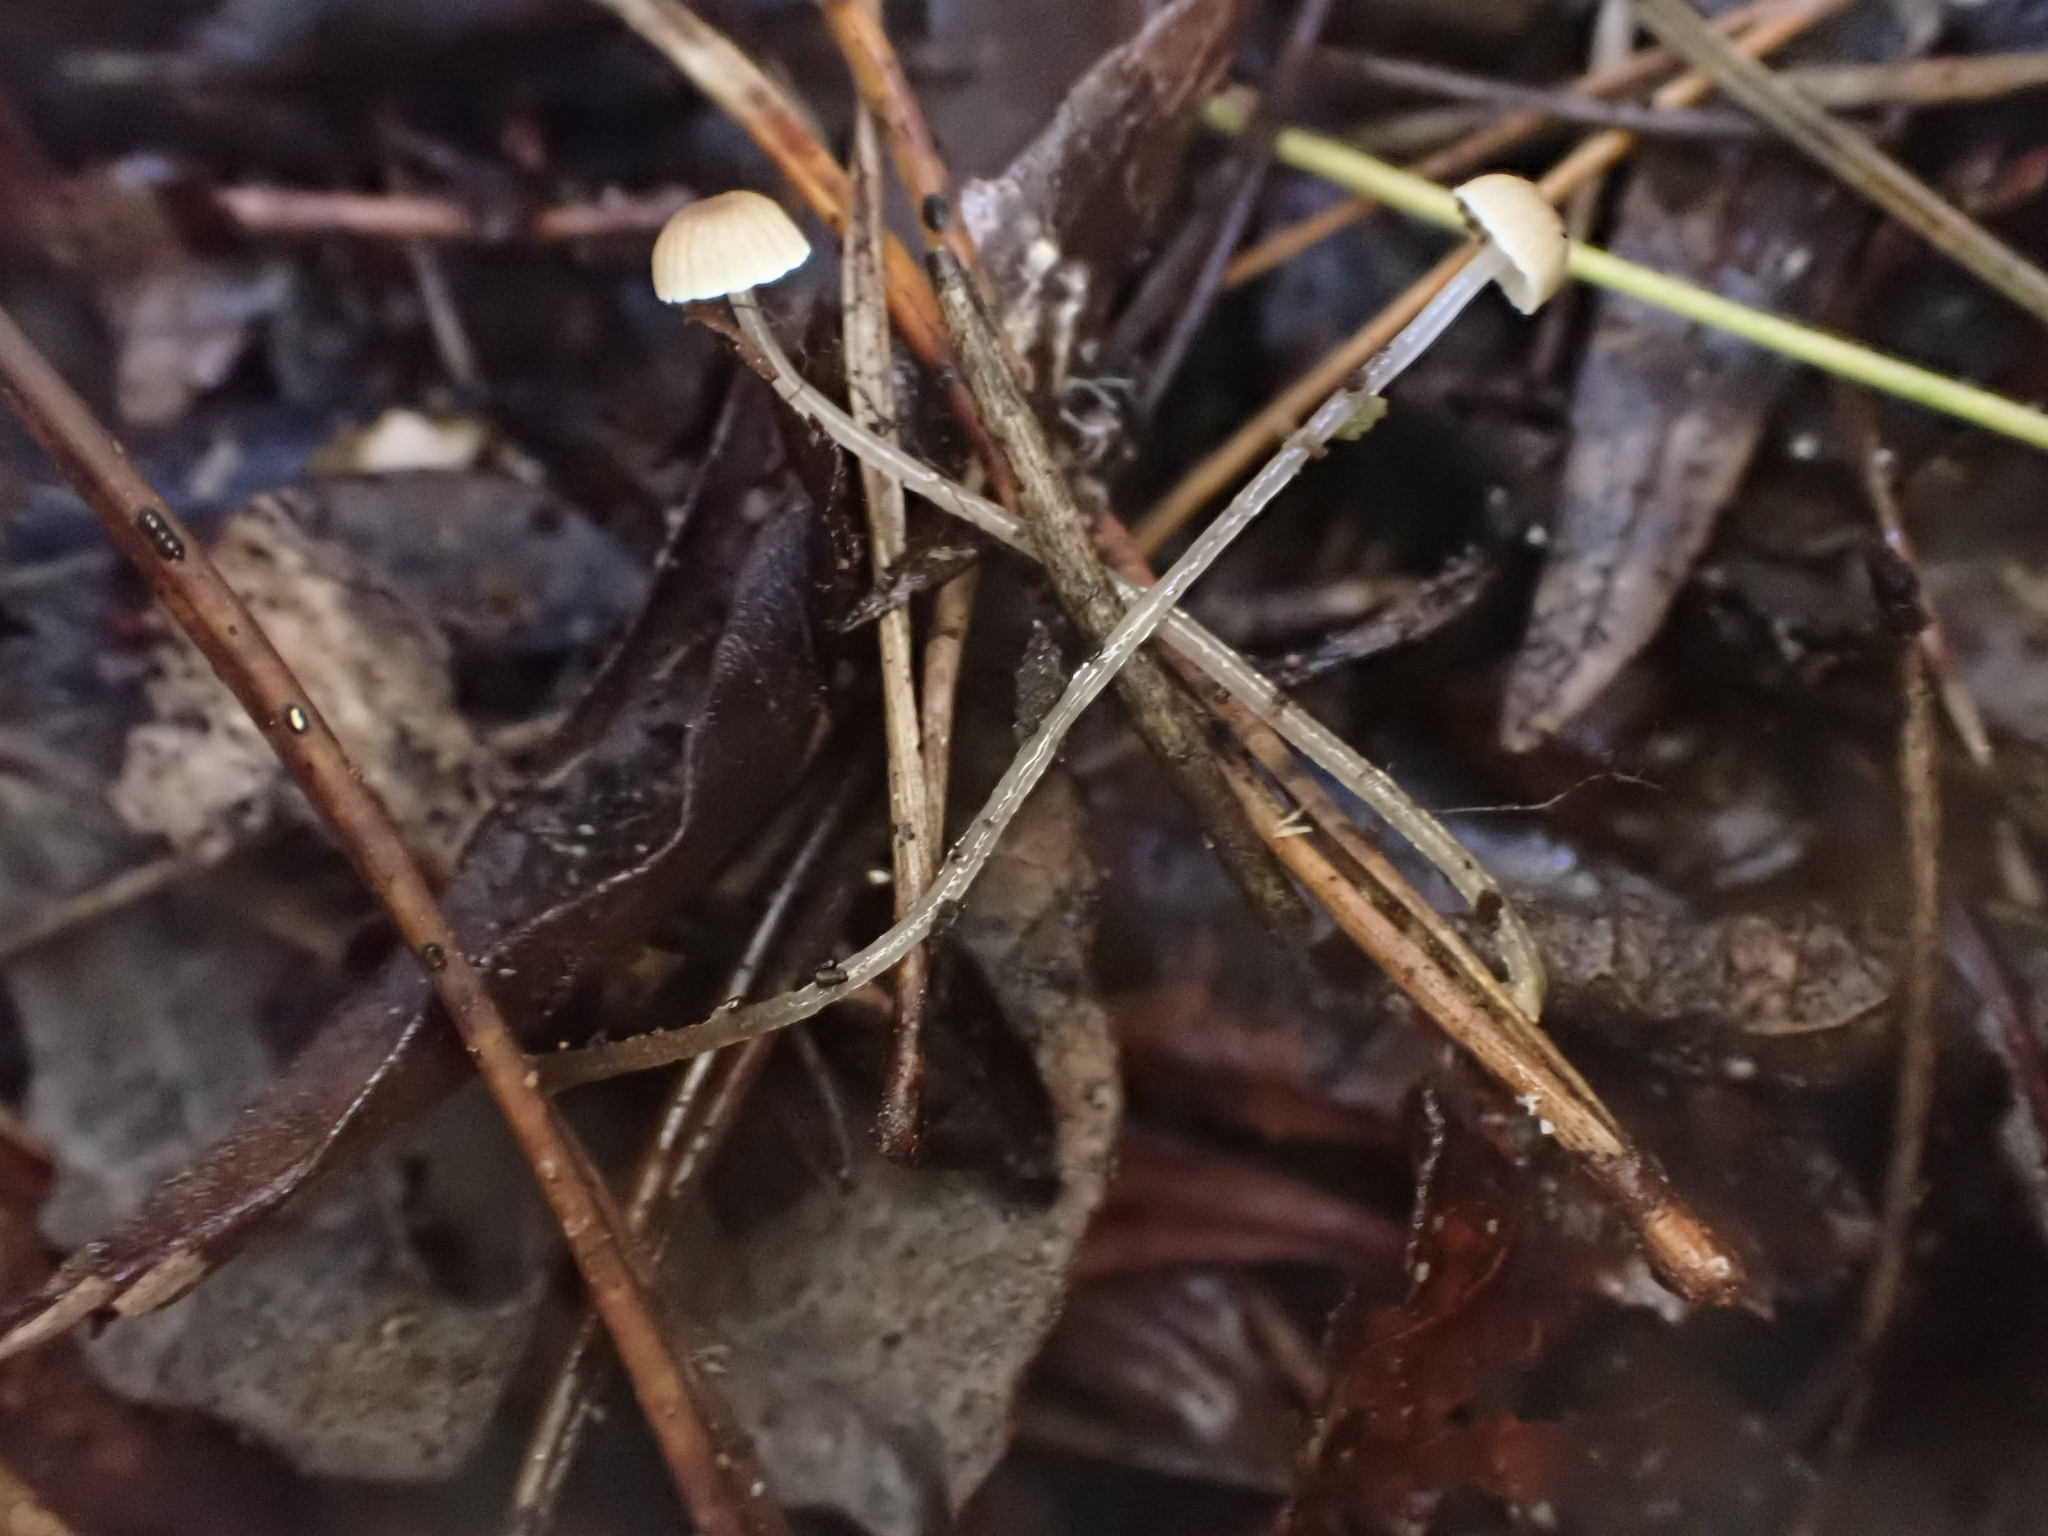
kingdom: Fungi
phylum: Basidiomycota
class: Agaricomycetes
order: Agaricales
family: Mycenaceae
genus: Roridomyces
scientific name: Roridomyces roridus
